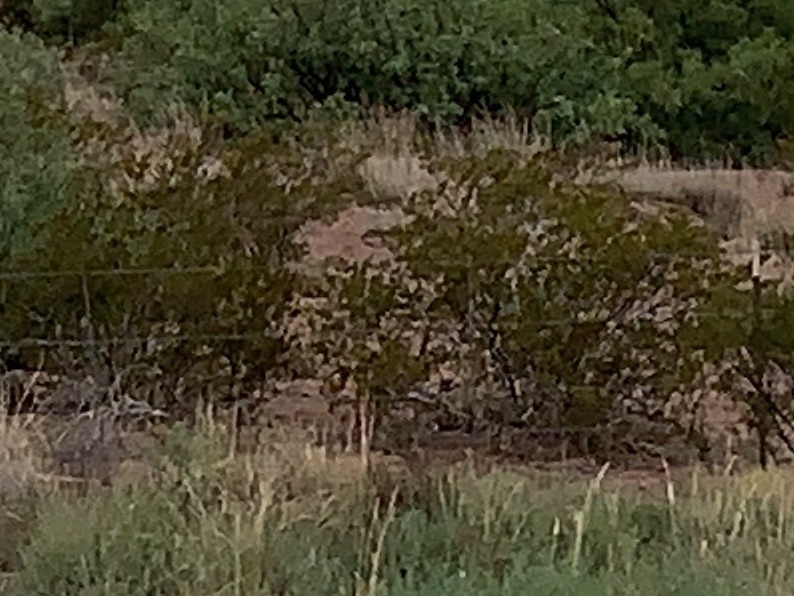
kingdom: Plantae
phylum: Tracheophyta
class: Magnoliopsida
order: Zygophyllales
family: Zygophyllaceae
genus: Larrea
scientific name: Larrea tridentata
